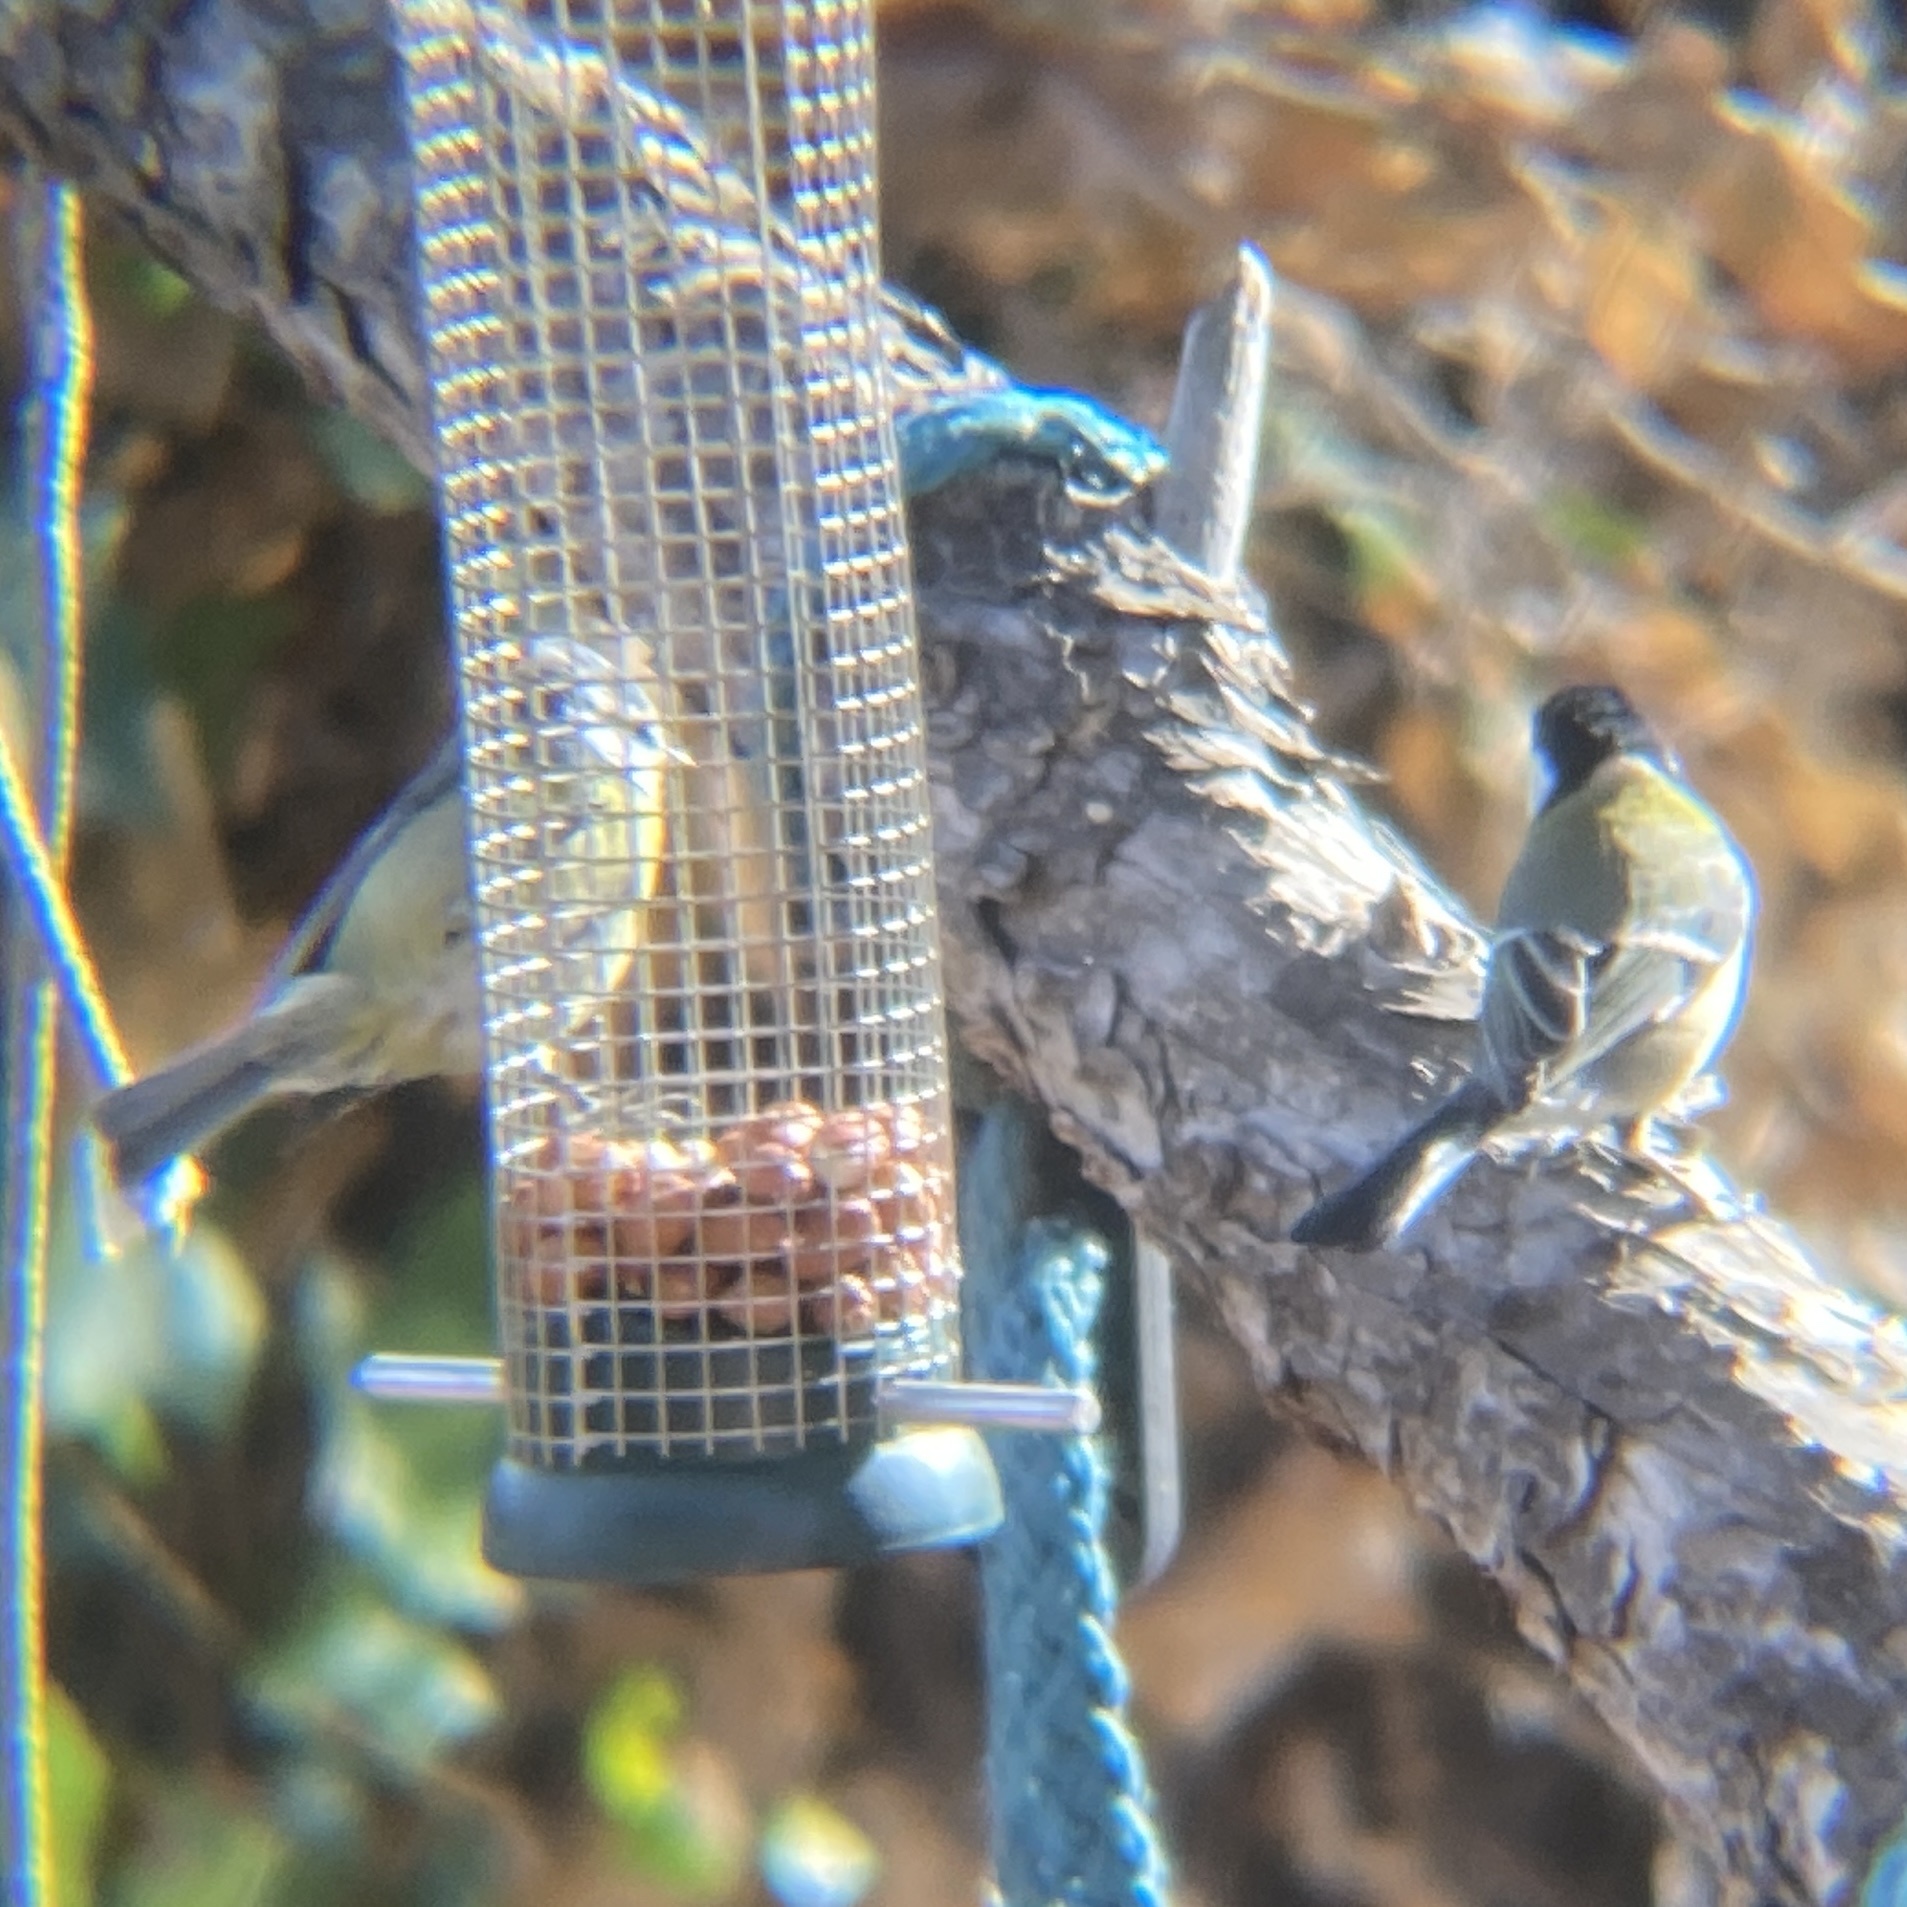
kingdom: Animalia
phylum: Chordata
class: Aves
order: Passeriformes
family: Paridae
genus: Parus
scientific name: Parus major
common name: Great tit
